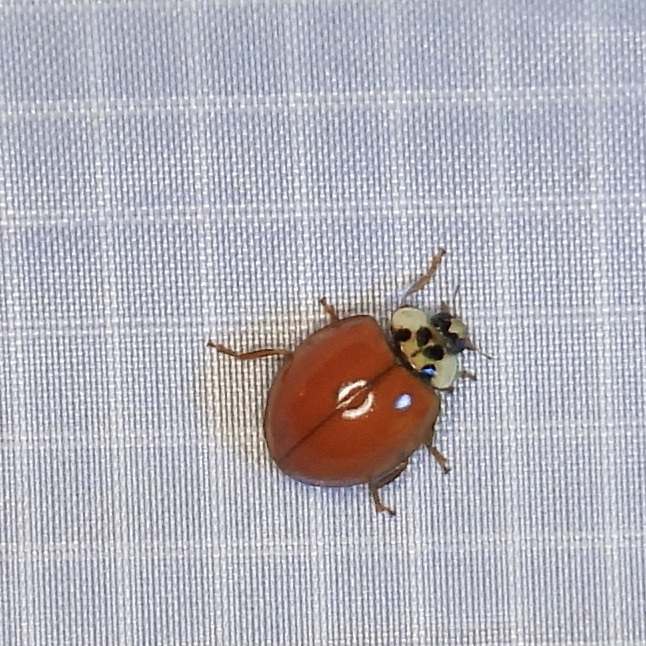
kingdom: Animalia
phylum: Arthropoda
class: Insecta
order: Coleoptera
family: Coccinellidae
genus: Harmonia
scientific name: Harmonia axyridis
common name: Harlequin ladybird
